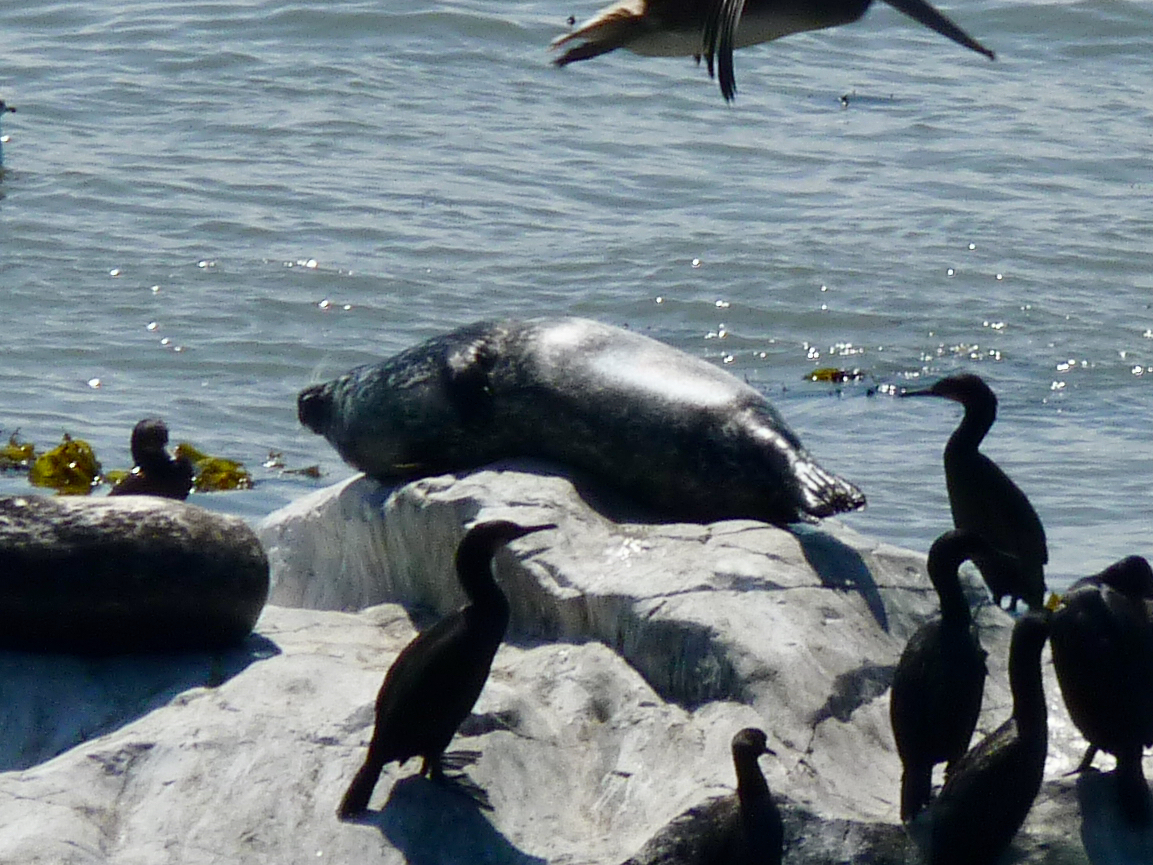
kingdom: Animalia
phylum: Chordata
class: Mammalia
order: Carnivora
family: Phocidae
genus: Phoca
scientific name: Phoca vitulina
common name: Harbor seal
